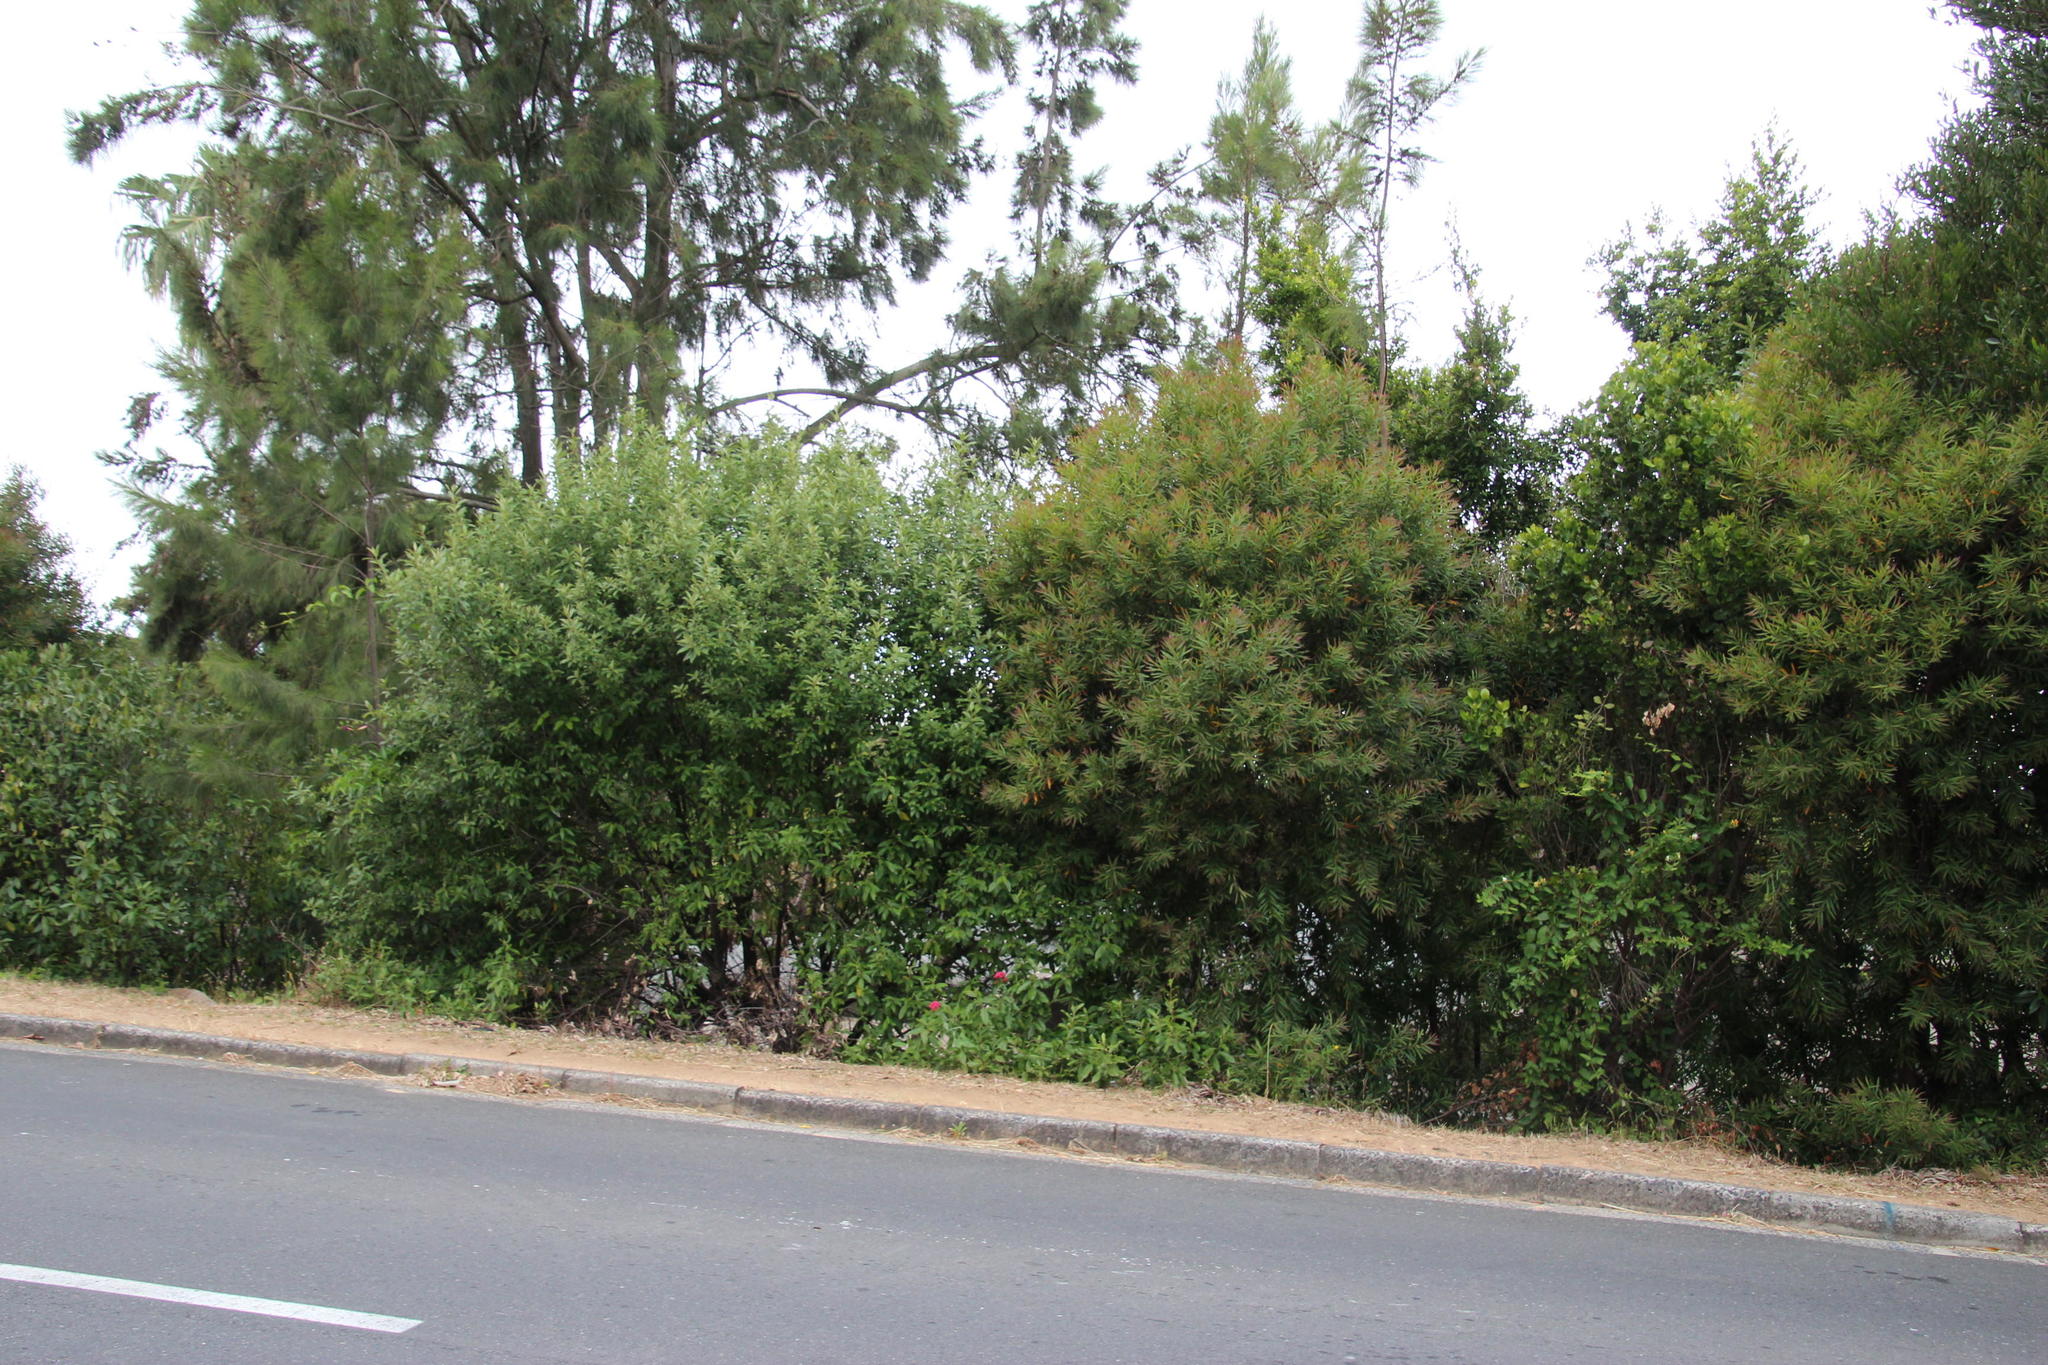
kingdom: Plantae
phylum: Tracheophyta
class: Magnoliopsida
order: Dipsacales
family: Caprifoliaceae
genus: Centranthus
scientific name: Centranthus ruber
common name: Red valerian
